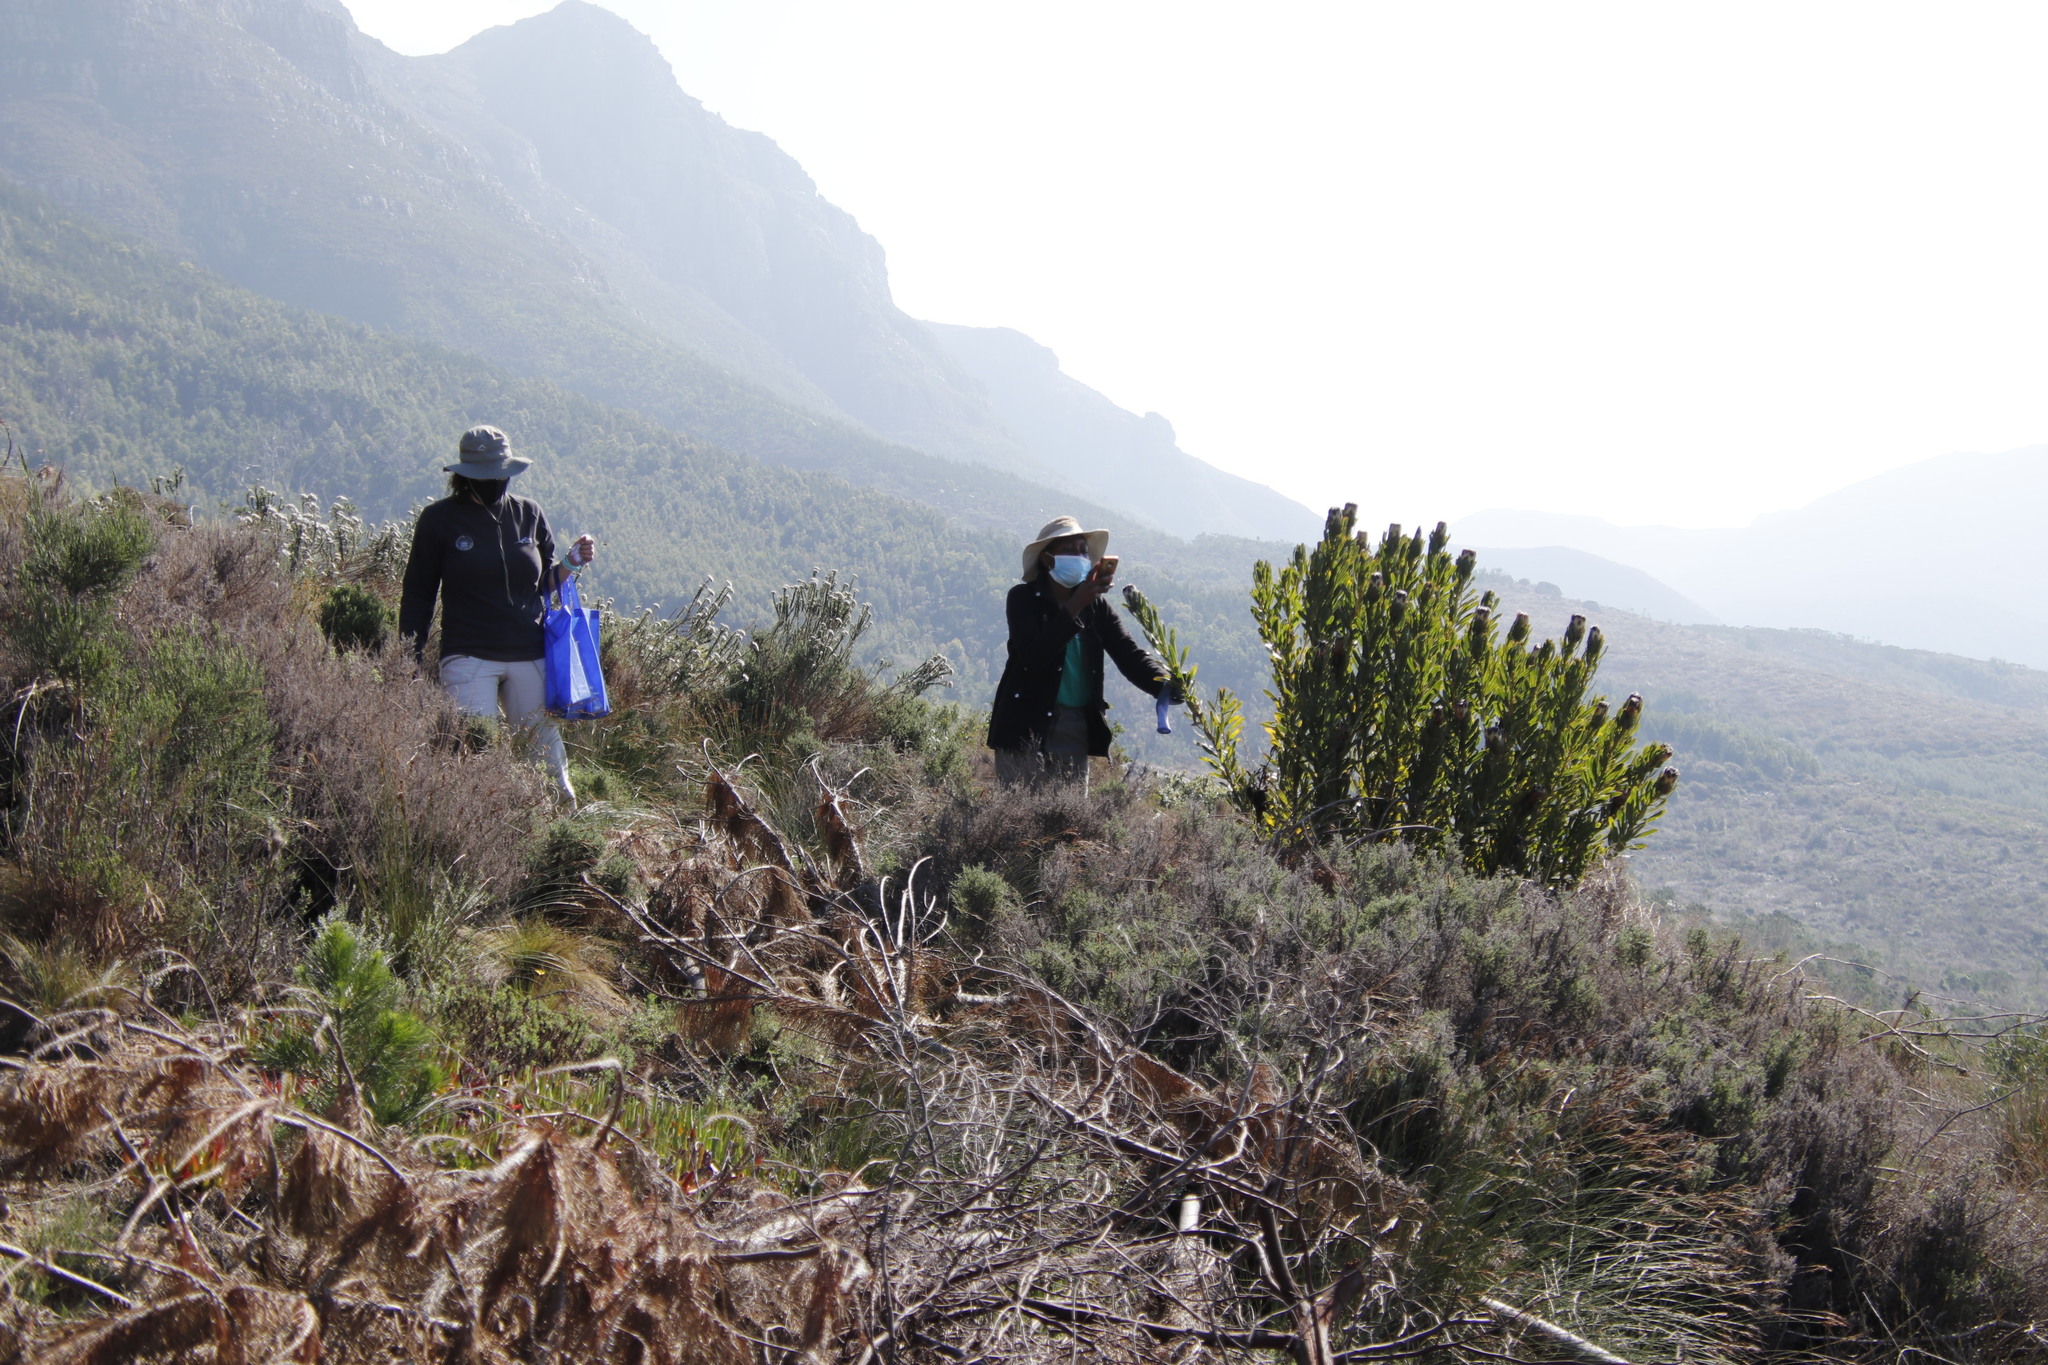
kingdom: Plantae
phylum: Tracheophyta
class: Magnoliopsida
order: Proteales
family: Proteaceae
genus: Protea
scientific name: Protea lepidocarpodendron
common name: Black-bearded protea
